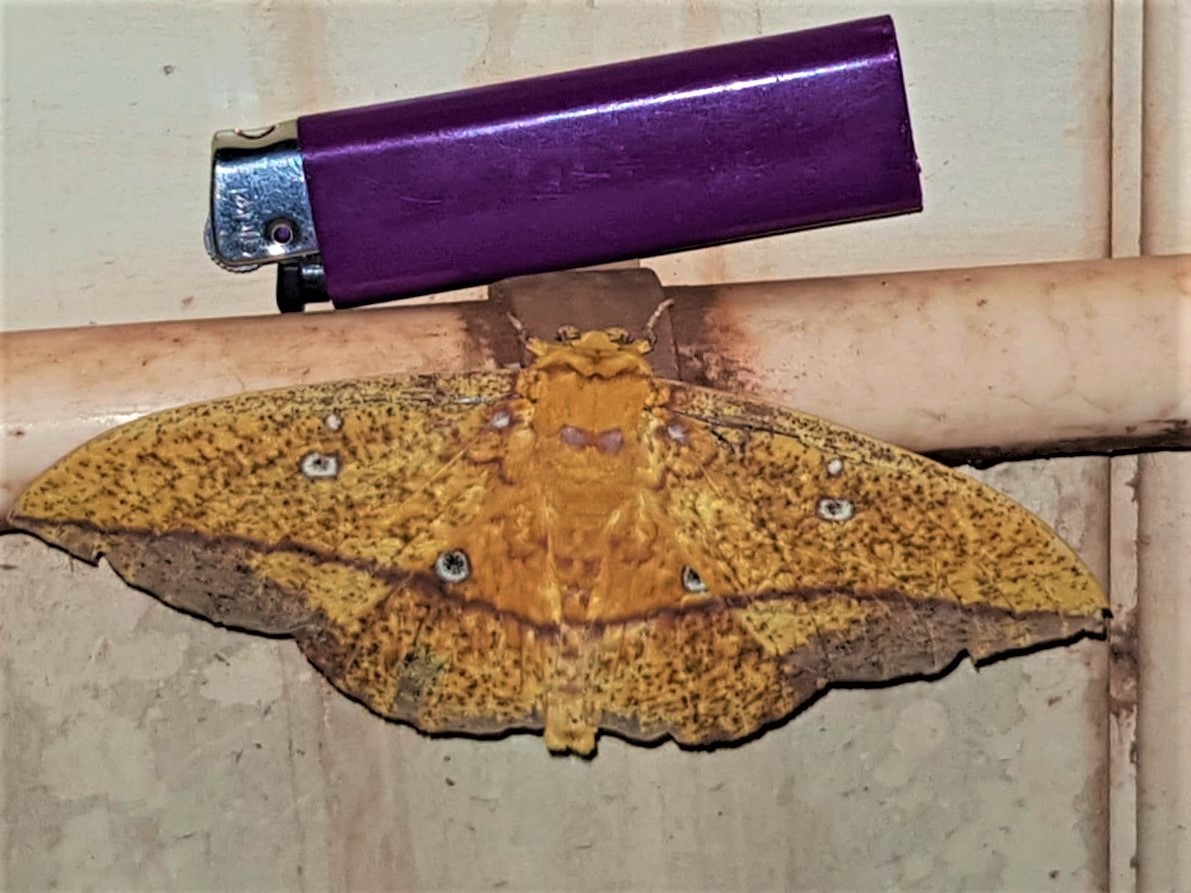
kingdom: Animalia
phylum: Arthropoda
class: Insecta
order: Lepidoptera
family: Saturniidae
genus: Eacles
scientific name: Eacles penelope
